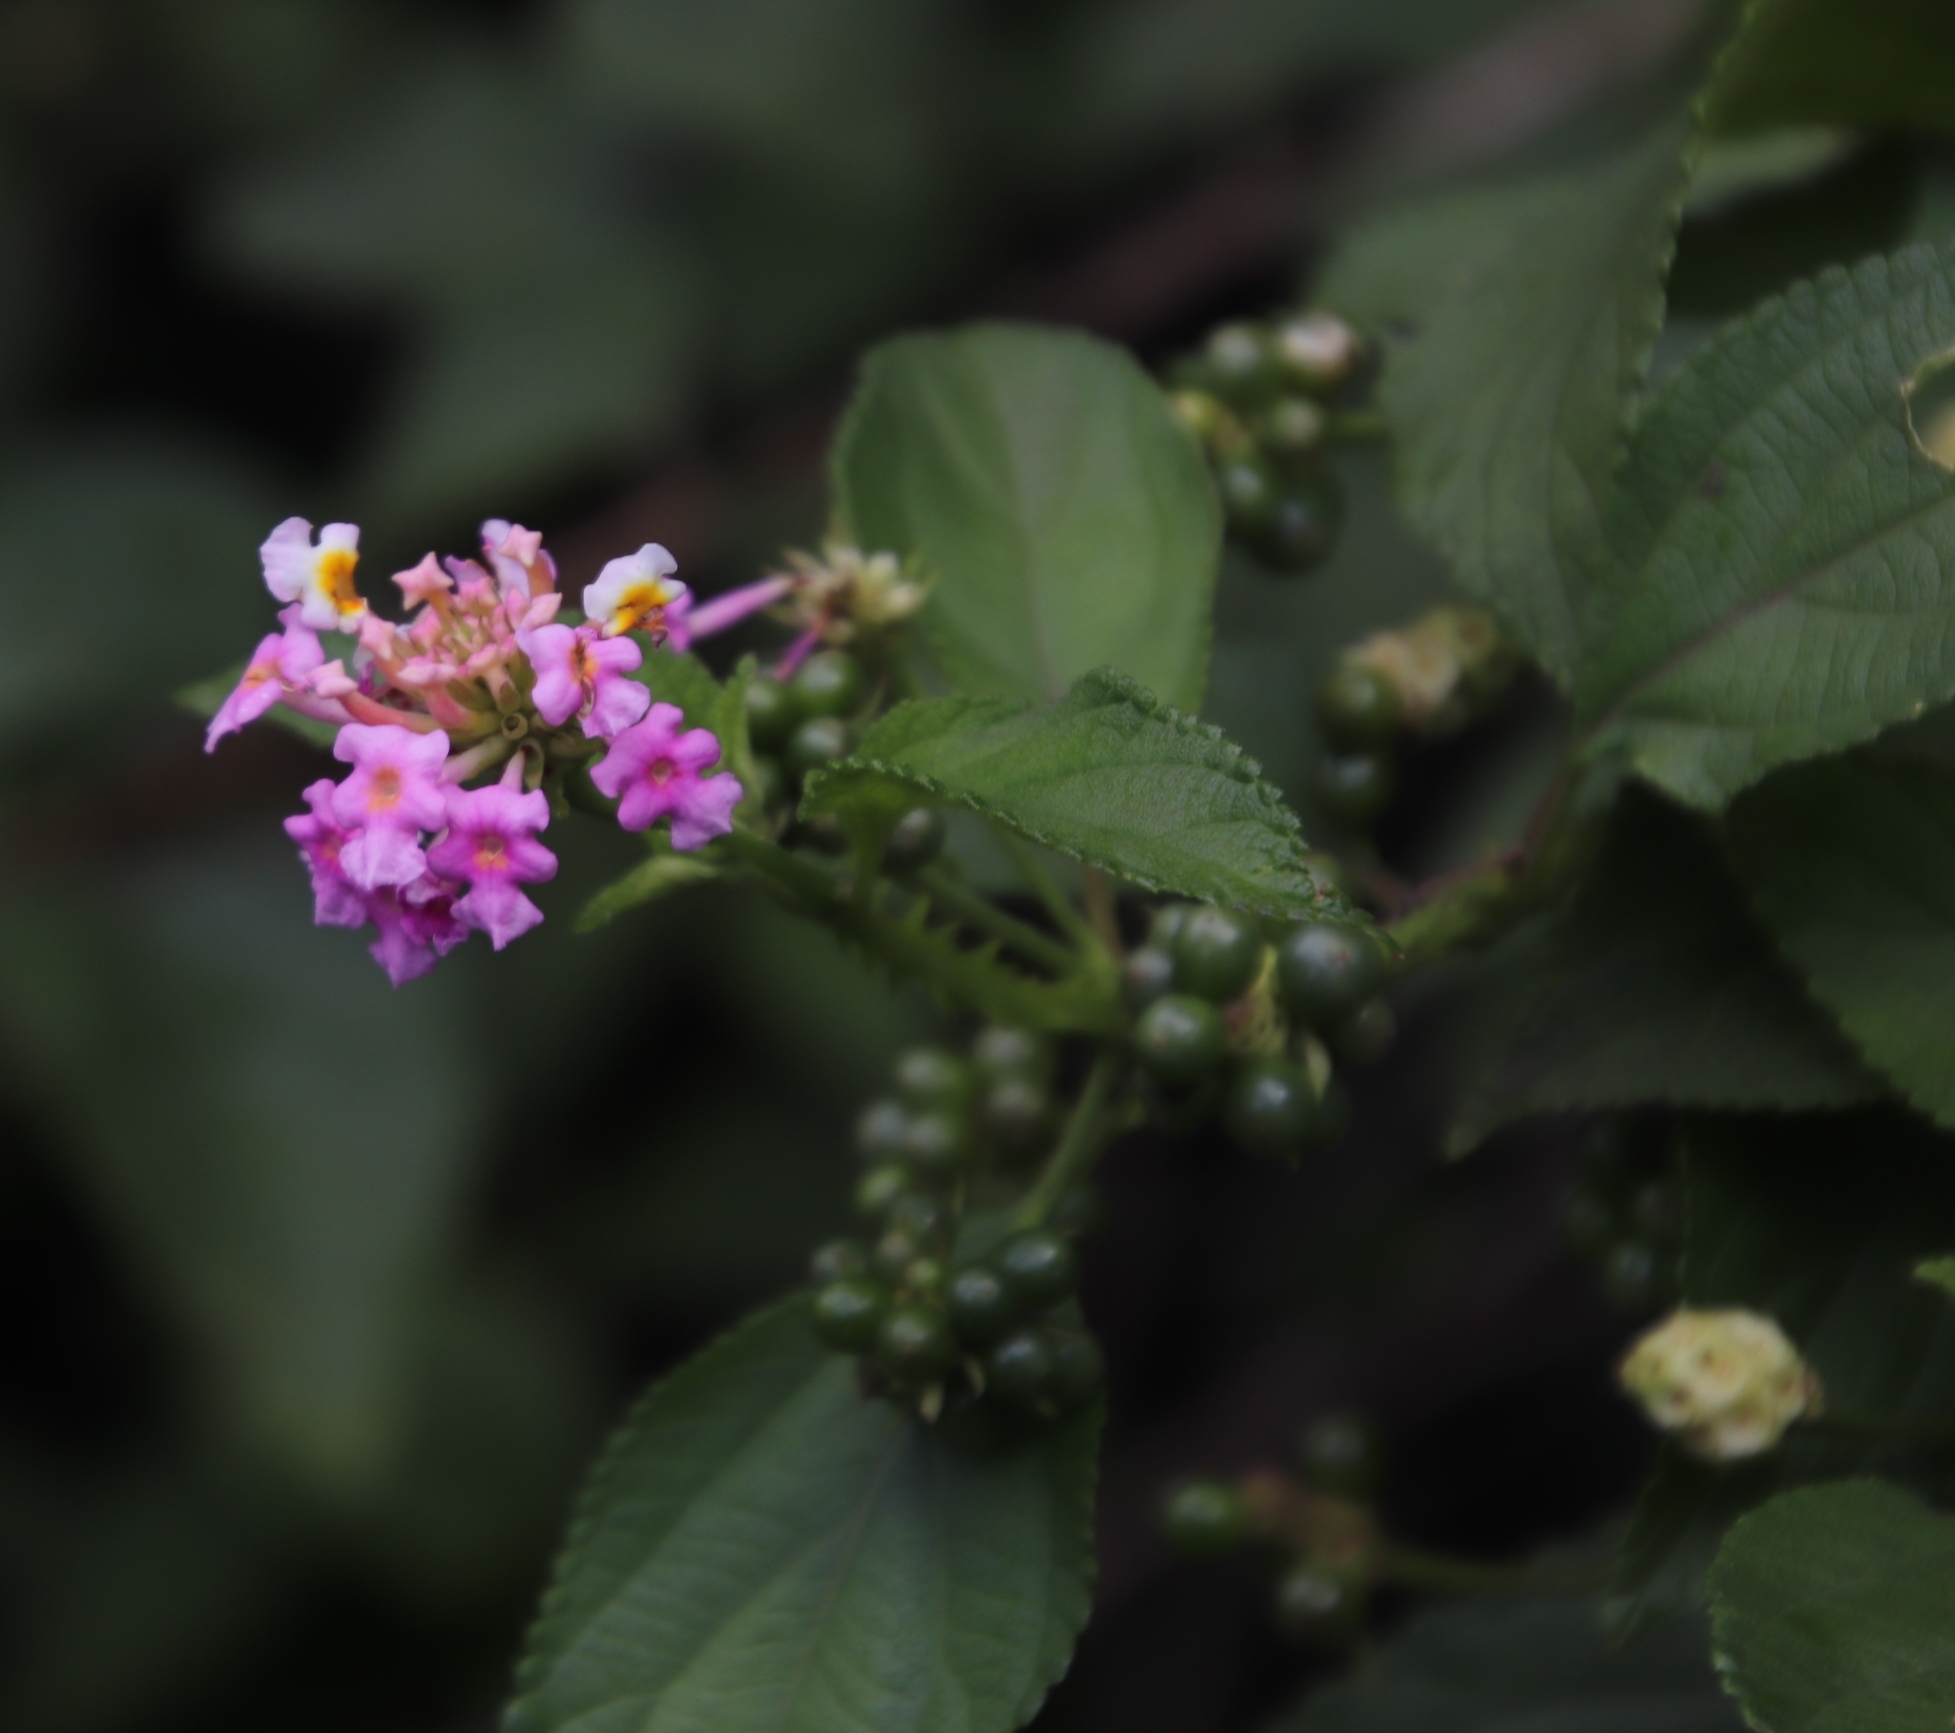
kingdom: Plantae
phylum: Tracheophyta
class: Magnoliopsida
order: Lamiales
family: Verbenaceae
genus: Lantana
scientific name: Lantana camara
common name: Lantana
